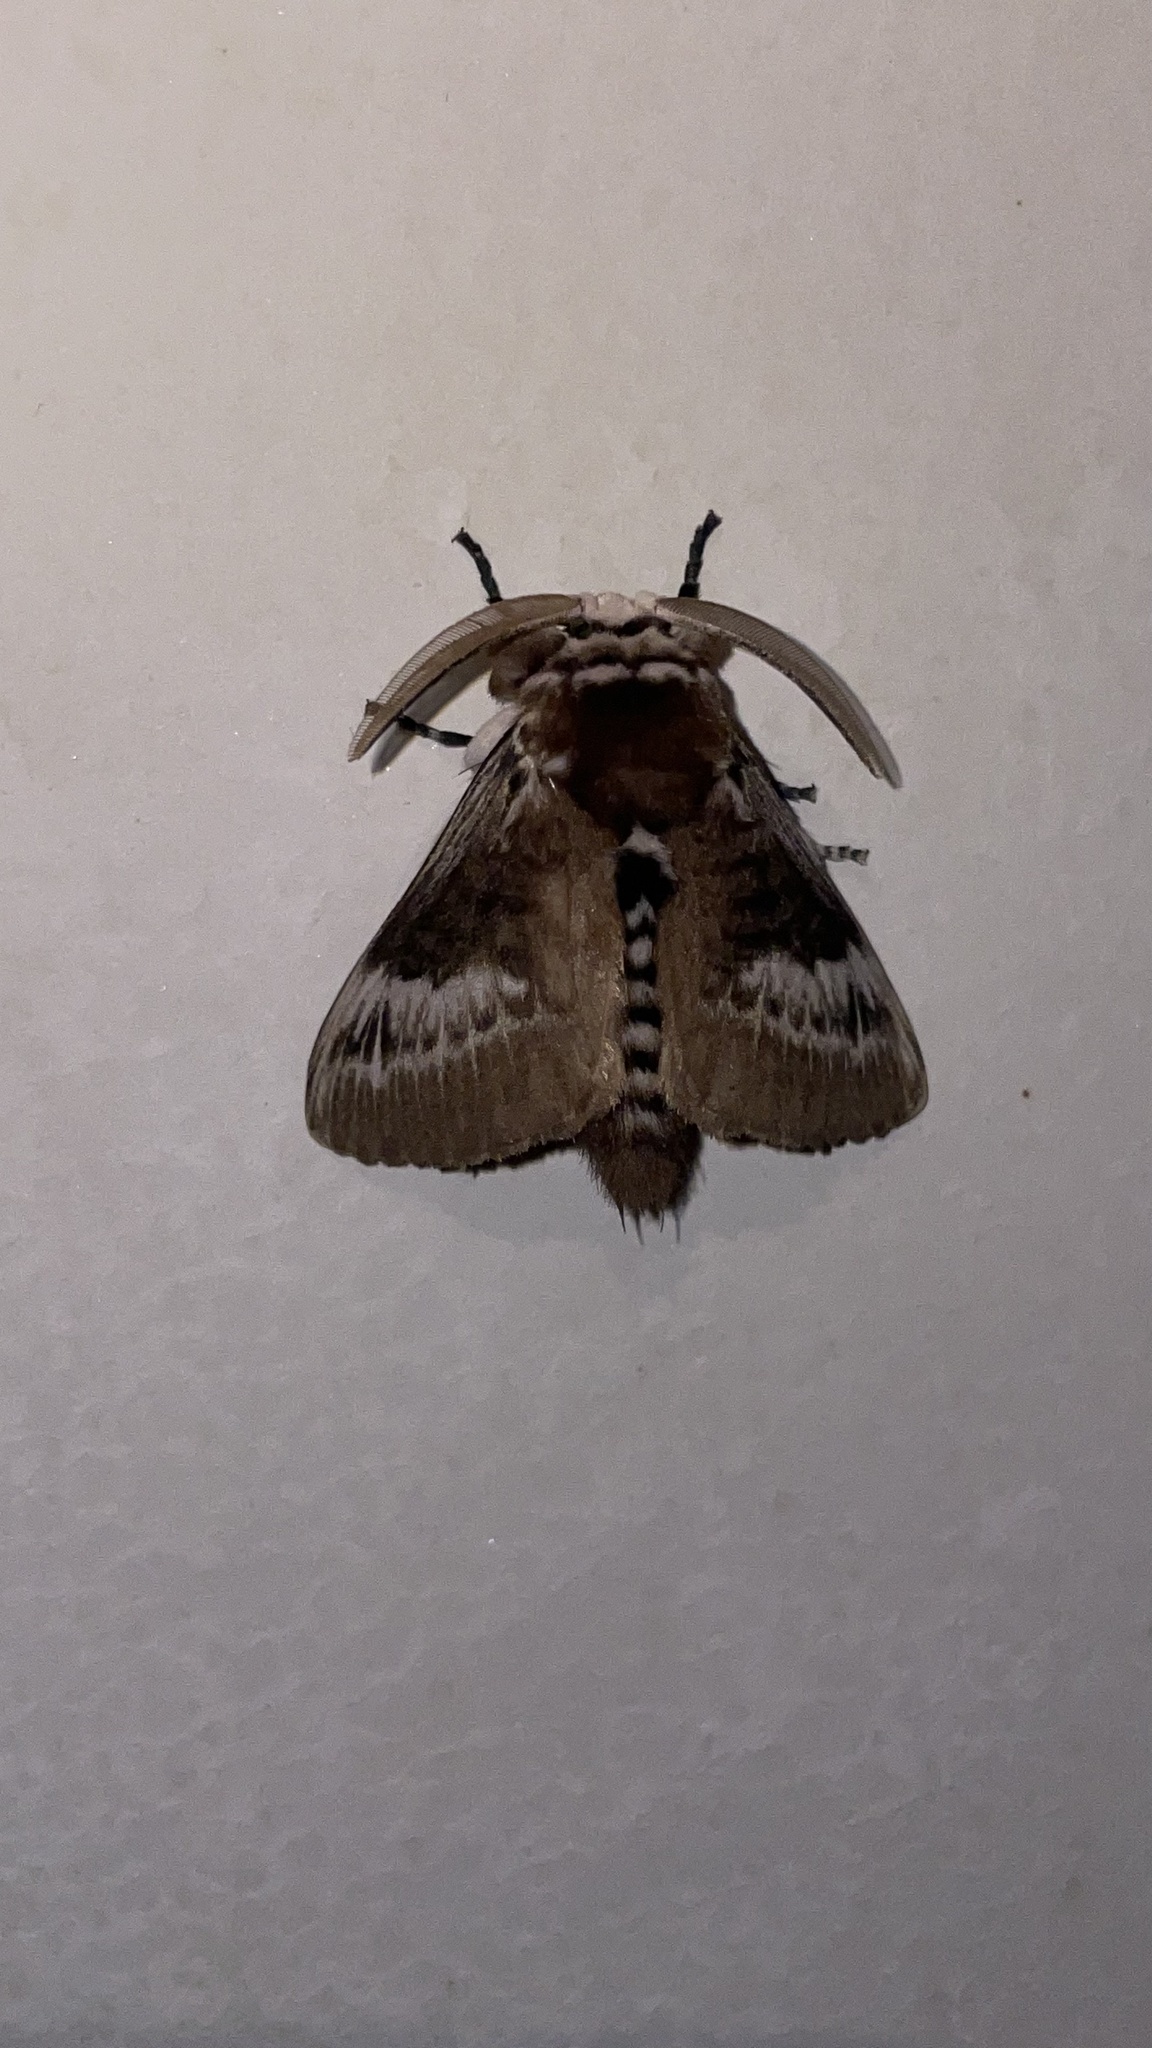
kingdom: Animalia
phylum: Arthropoda
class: Insecta
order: Lepidoptera
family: Megalopygidae
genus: Podalia
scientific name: Podalia walkeri
